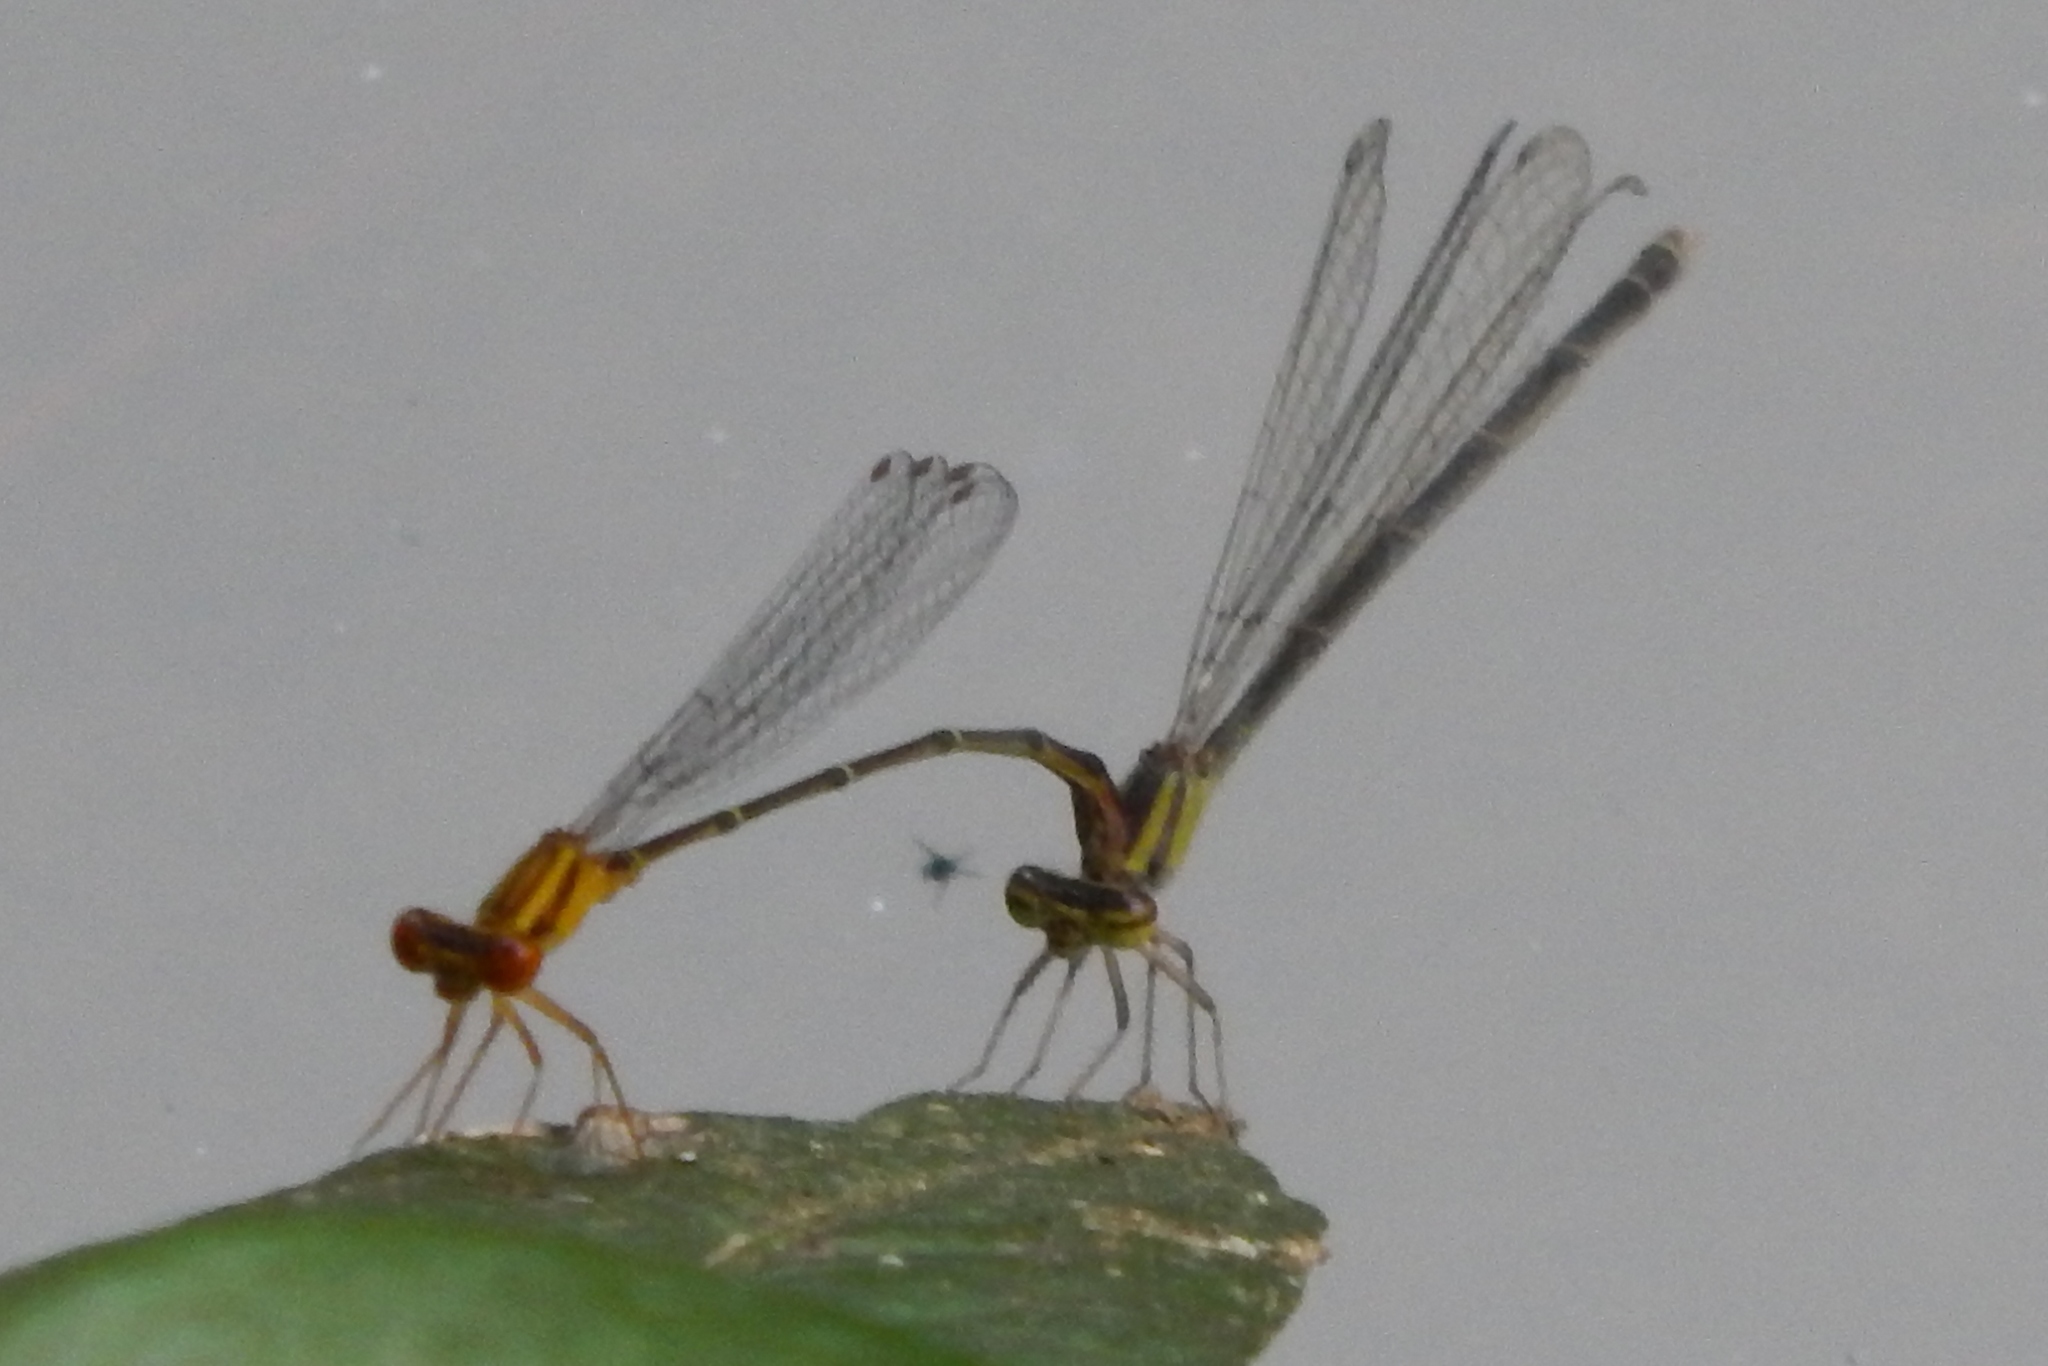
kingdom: Animalia
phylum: Arthropoda
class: Insecta
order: Odonata
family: Coenagrionidae
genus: Enallagma
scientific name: Enallagma signatum
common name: Orange bluet
